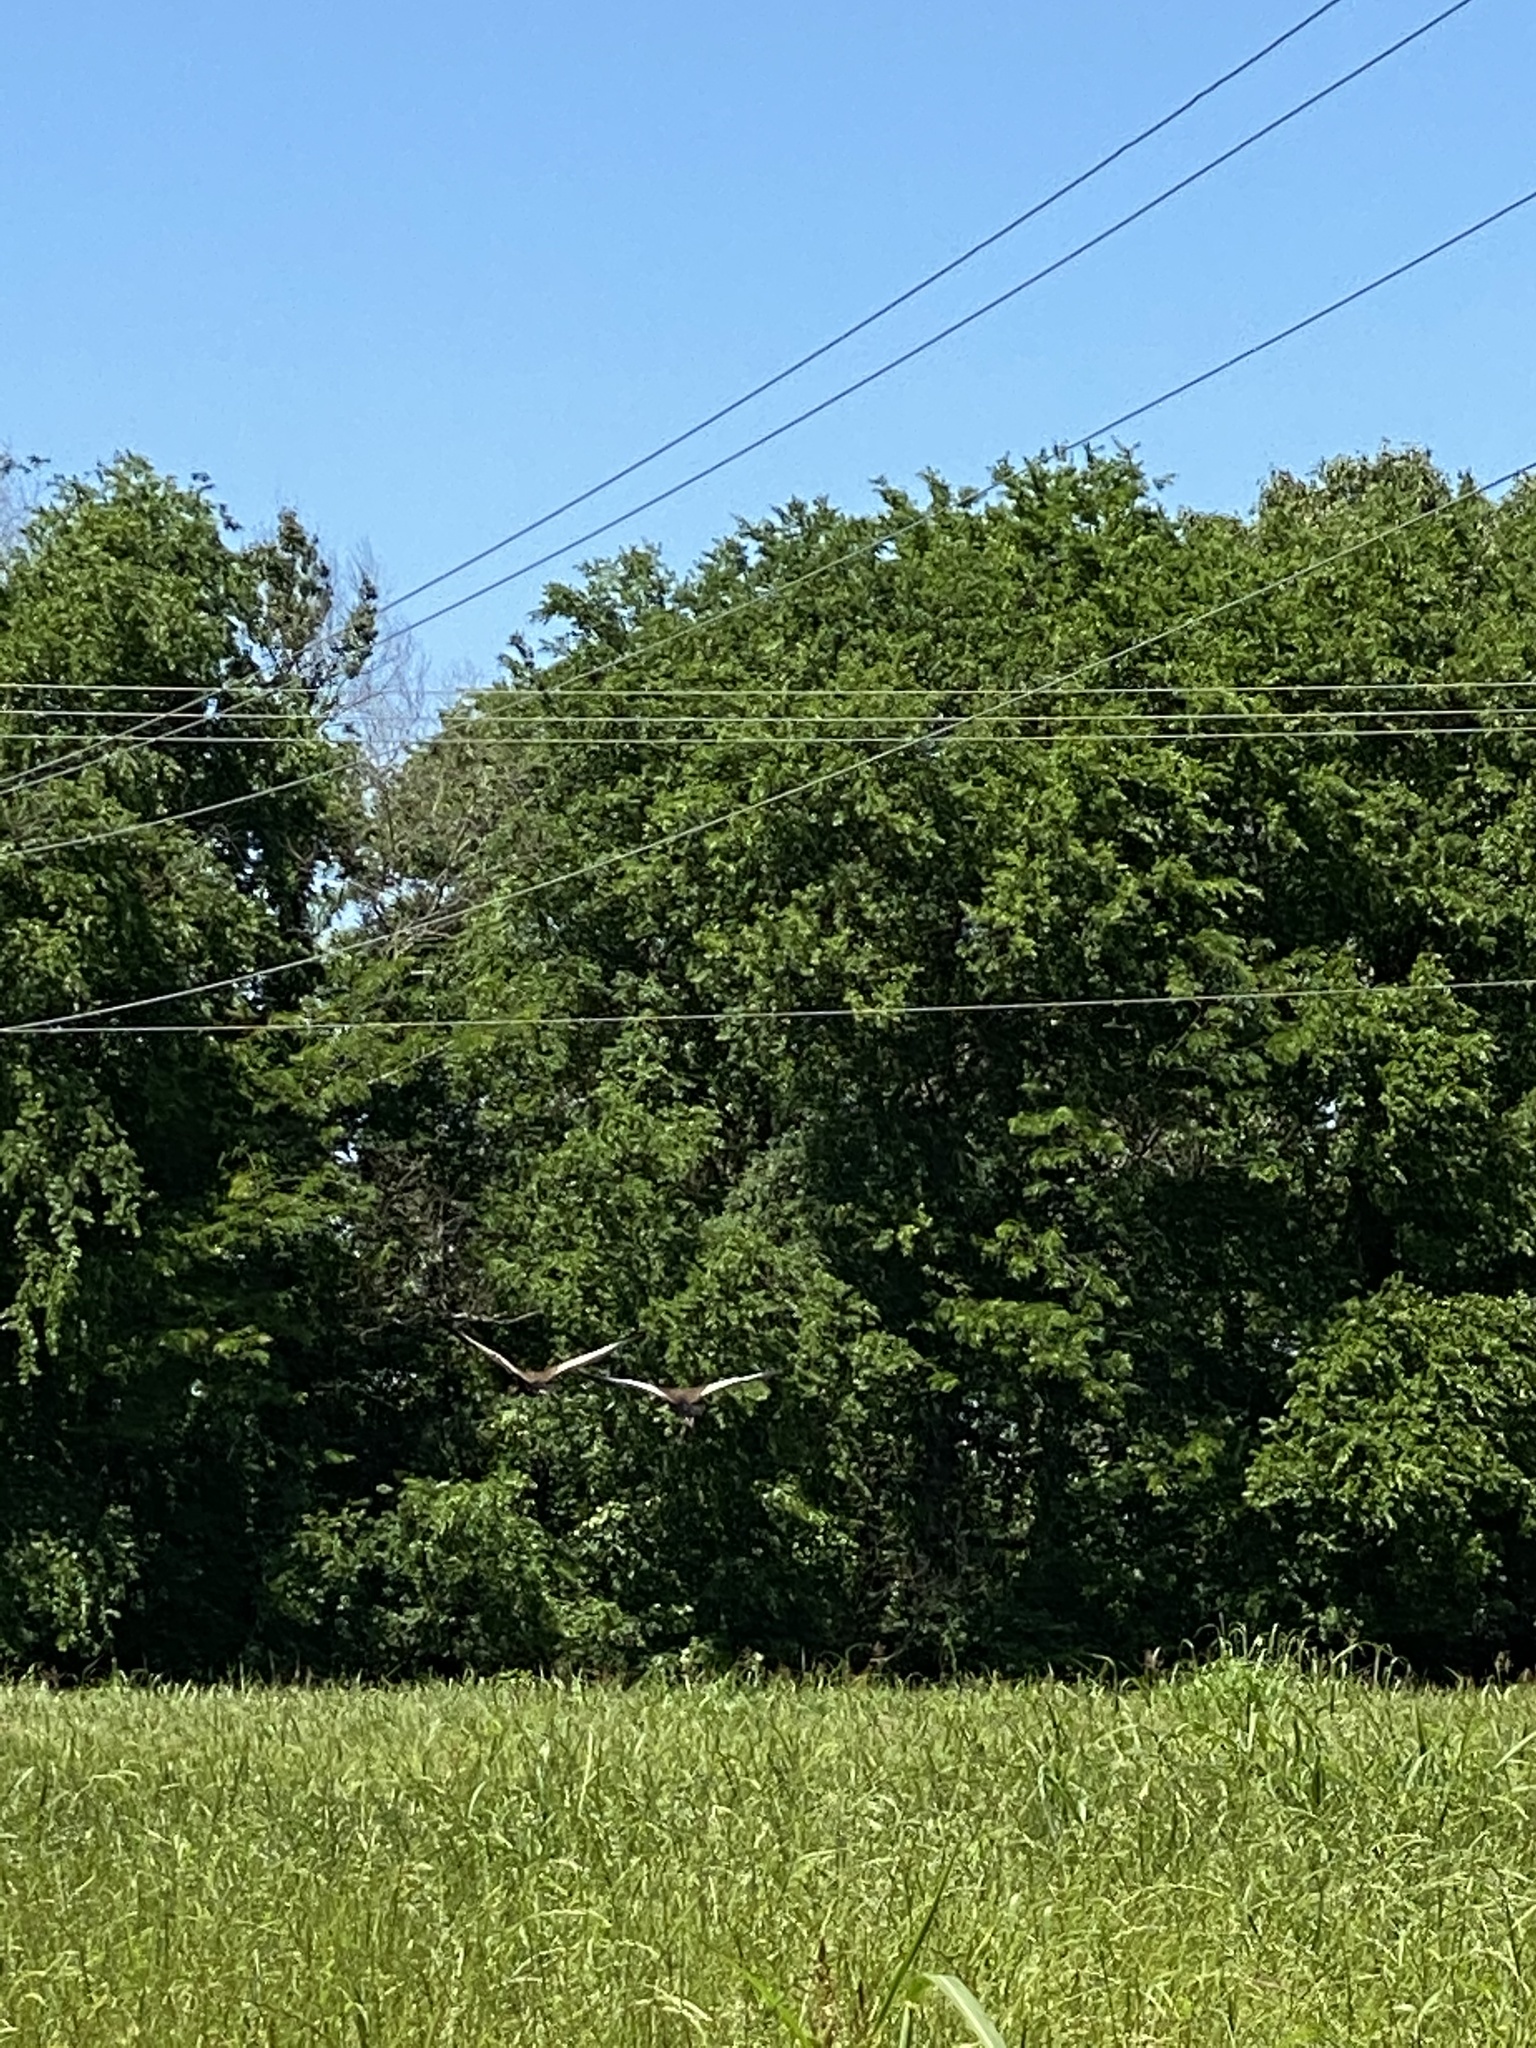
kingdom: Animalia
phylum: Chordata
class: Aves
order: Anseriformes
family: Anatidae
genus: Dendrocygna
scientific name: Dendrocygna autumnalis
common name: Black-bellied whistling duck
